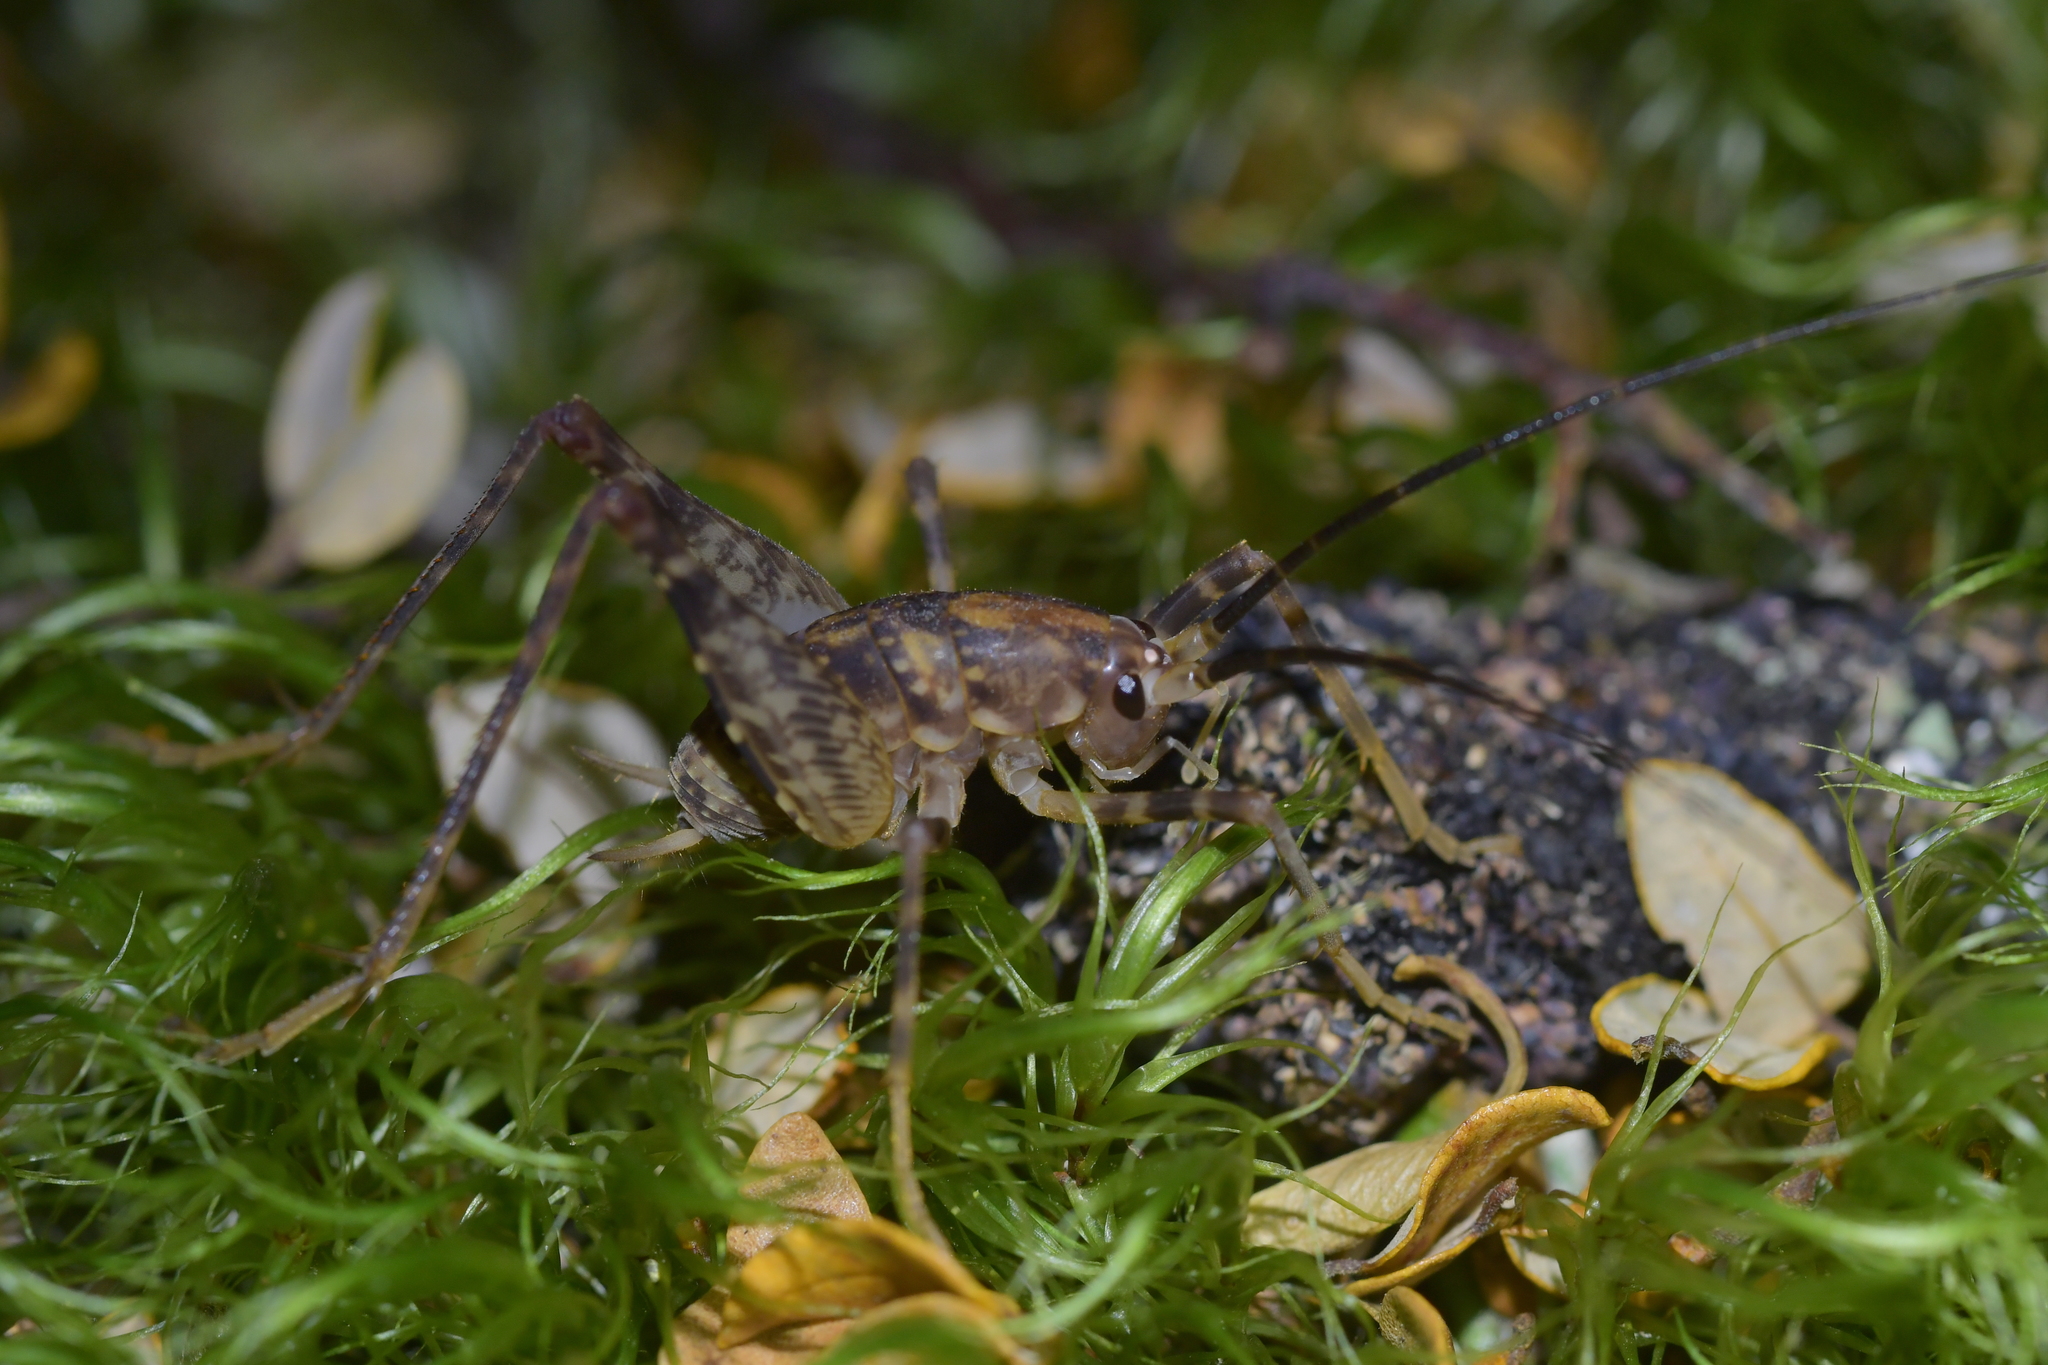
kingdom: Animalia
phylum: Arthropoda
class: Insecta
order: Orthoptera
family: Rhaphidophoridae
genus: Miotopus
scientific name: Miotopus diversus
